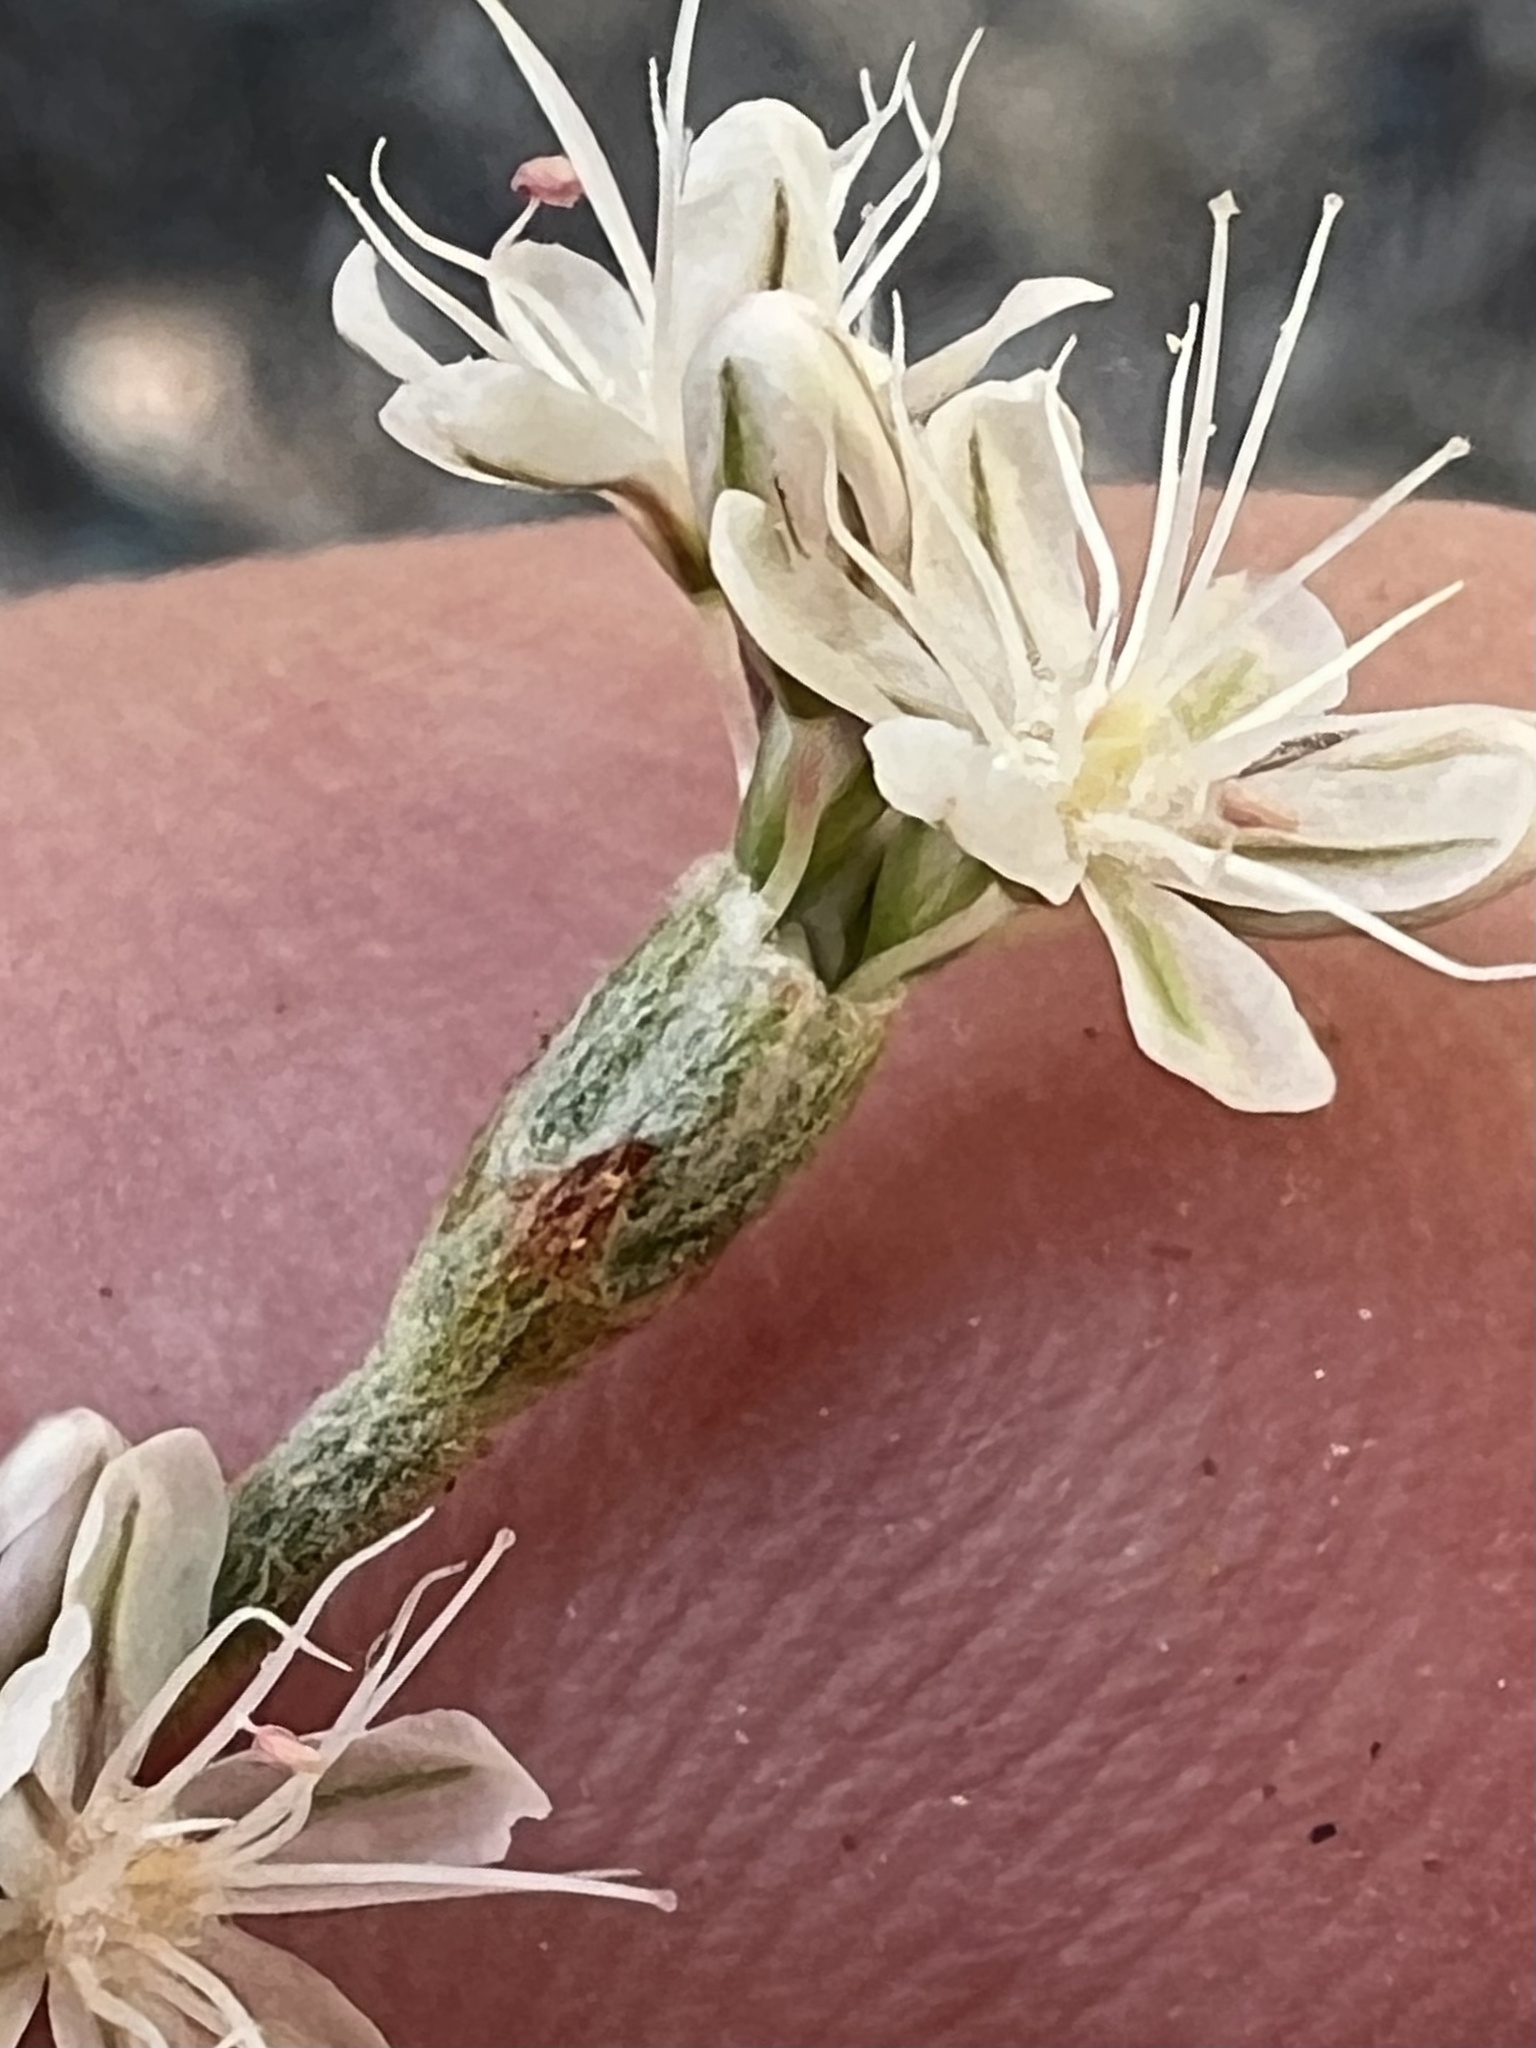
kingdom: Plantae
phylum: Tracheophyta
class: Magnoliopsida
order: Caryophyllales
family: Polygonaceae
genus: Eriogonum
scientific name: Eriogonum panamintense
